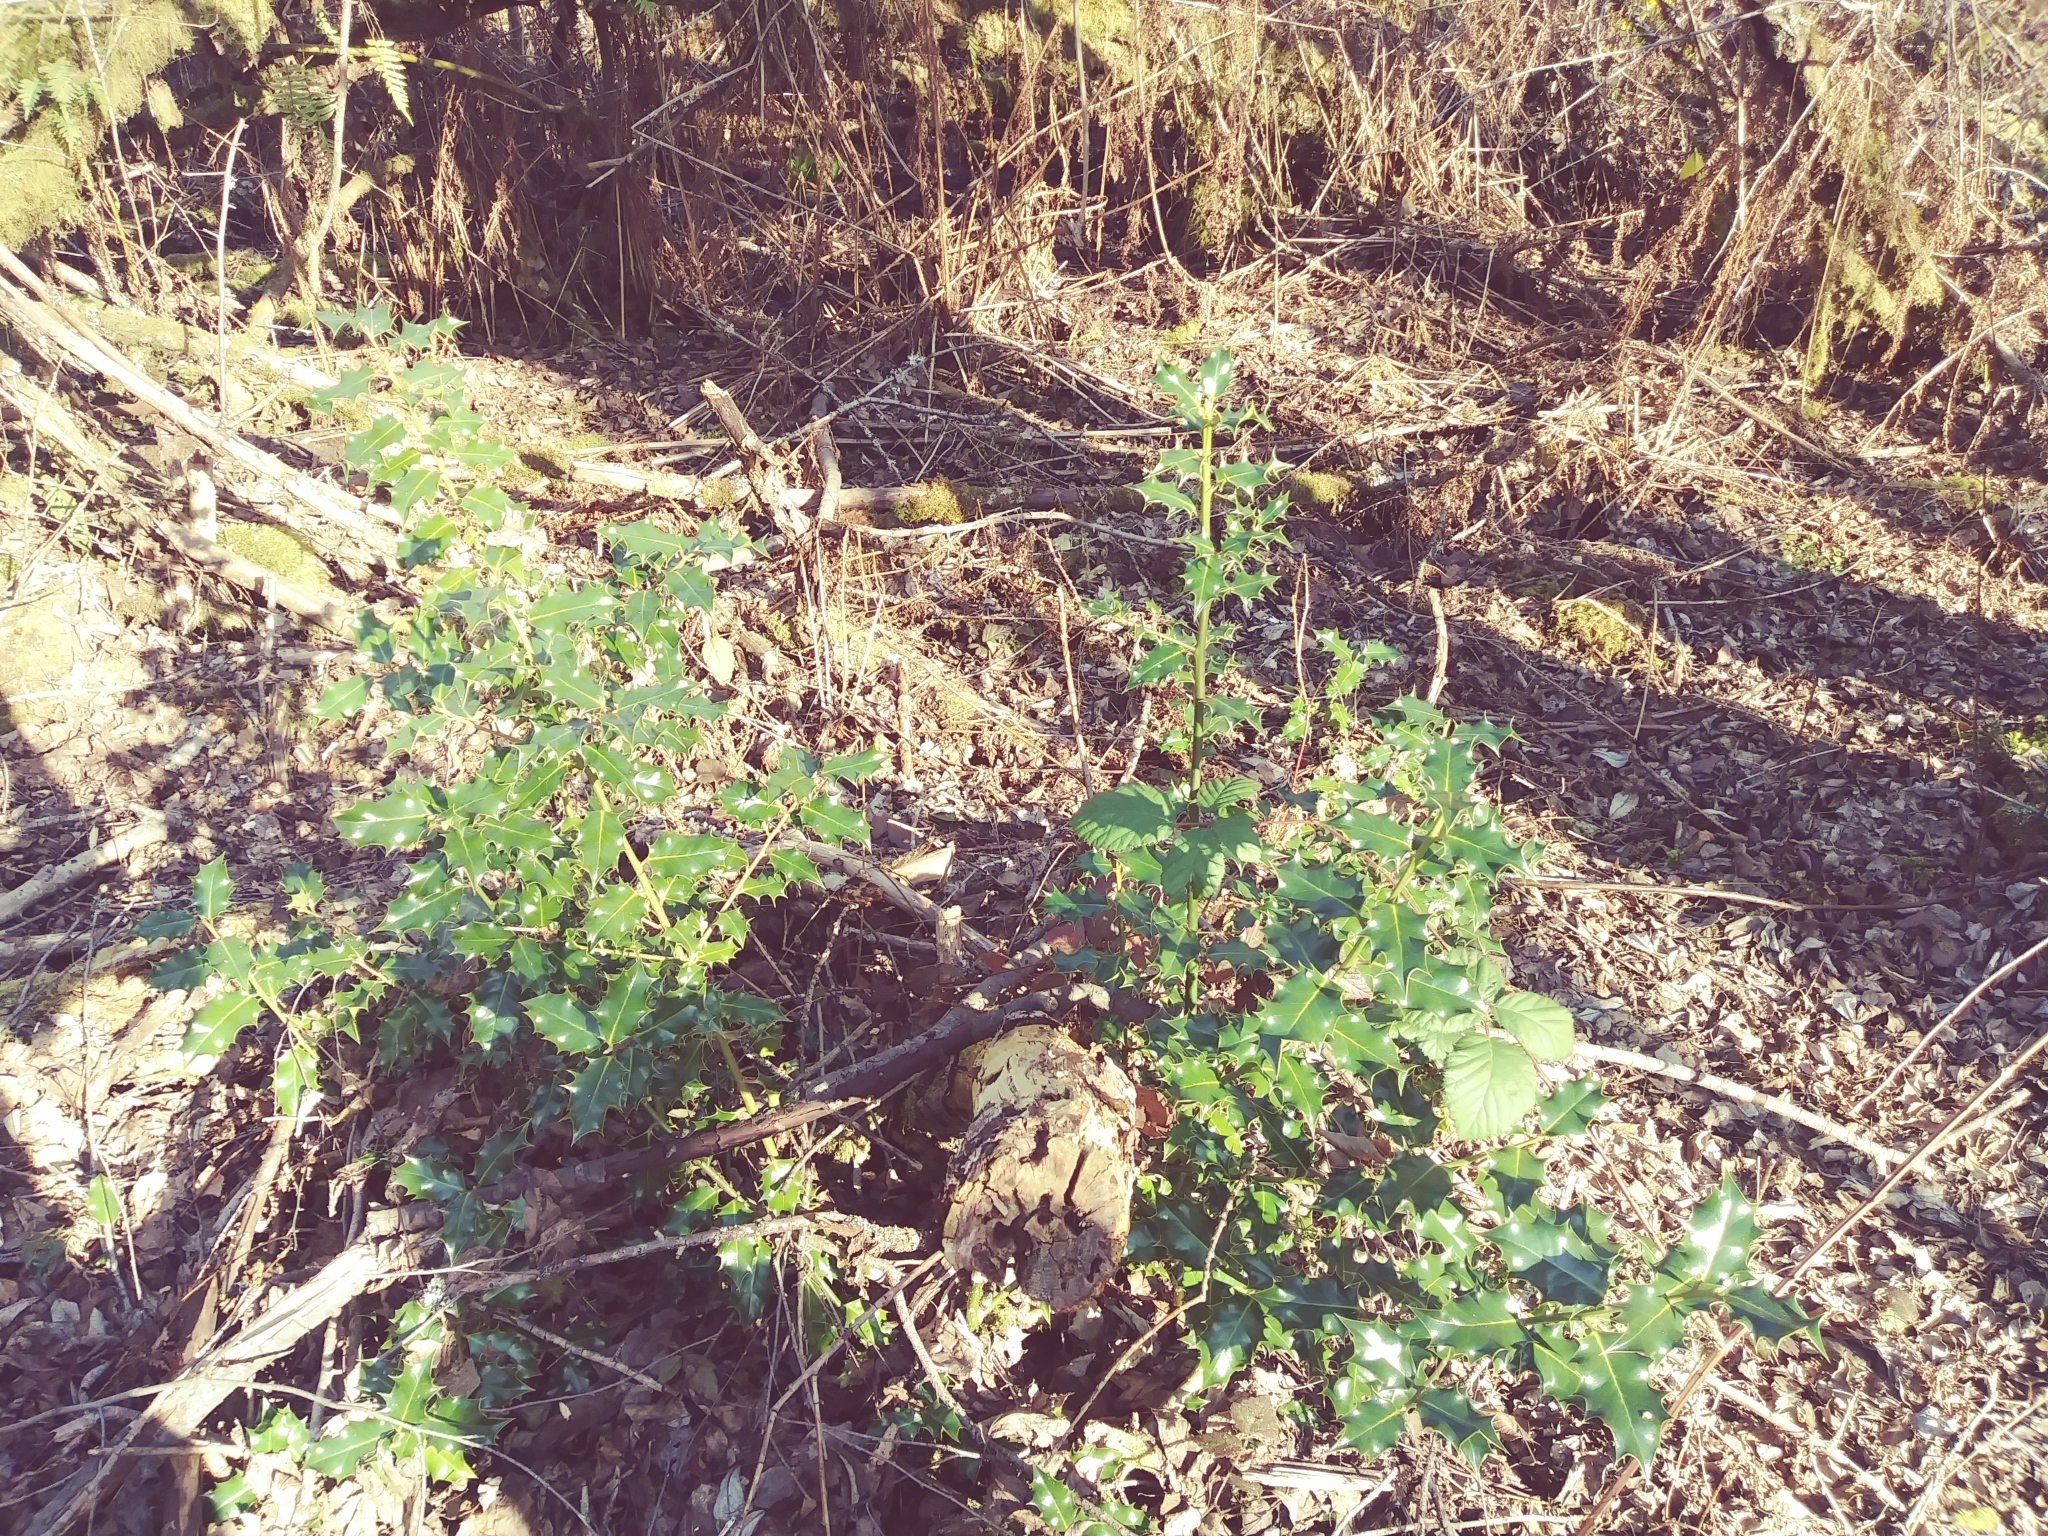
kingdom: Plantae
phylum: Tracheophyta
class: Magnoliopsida
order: Aquifoliales
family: Aquifoliaceae
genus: Ilex
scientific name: Ilex aquifolium
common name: English holly
